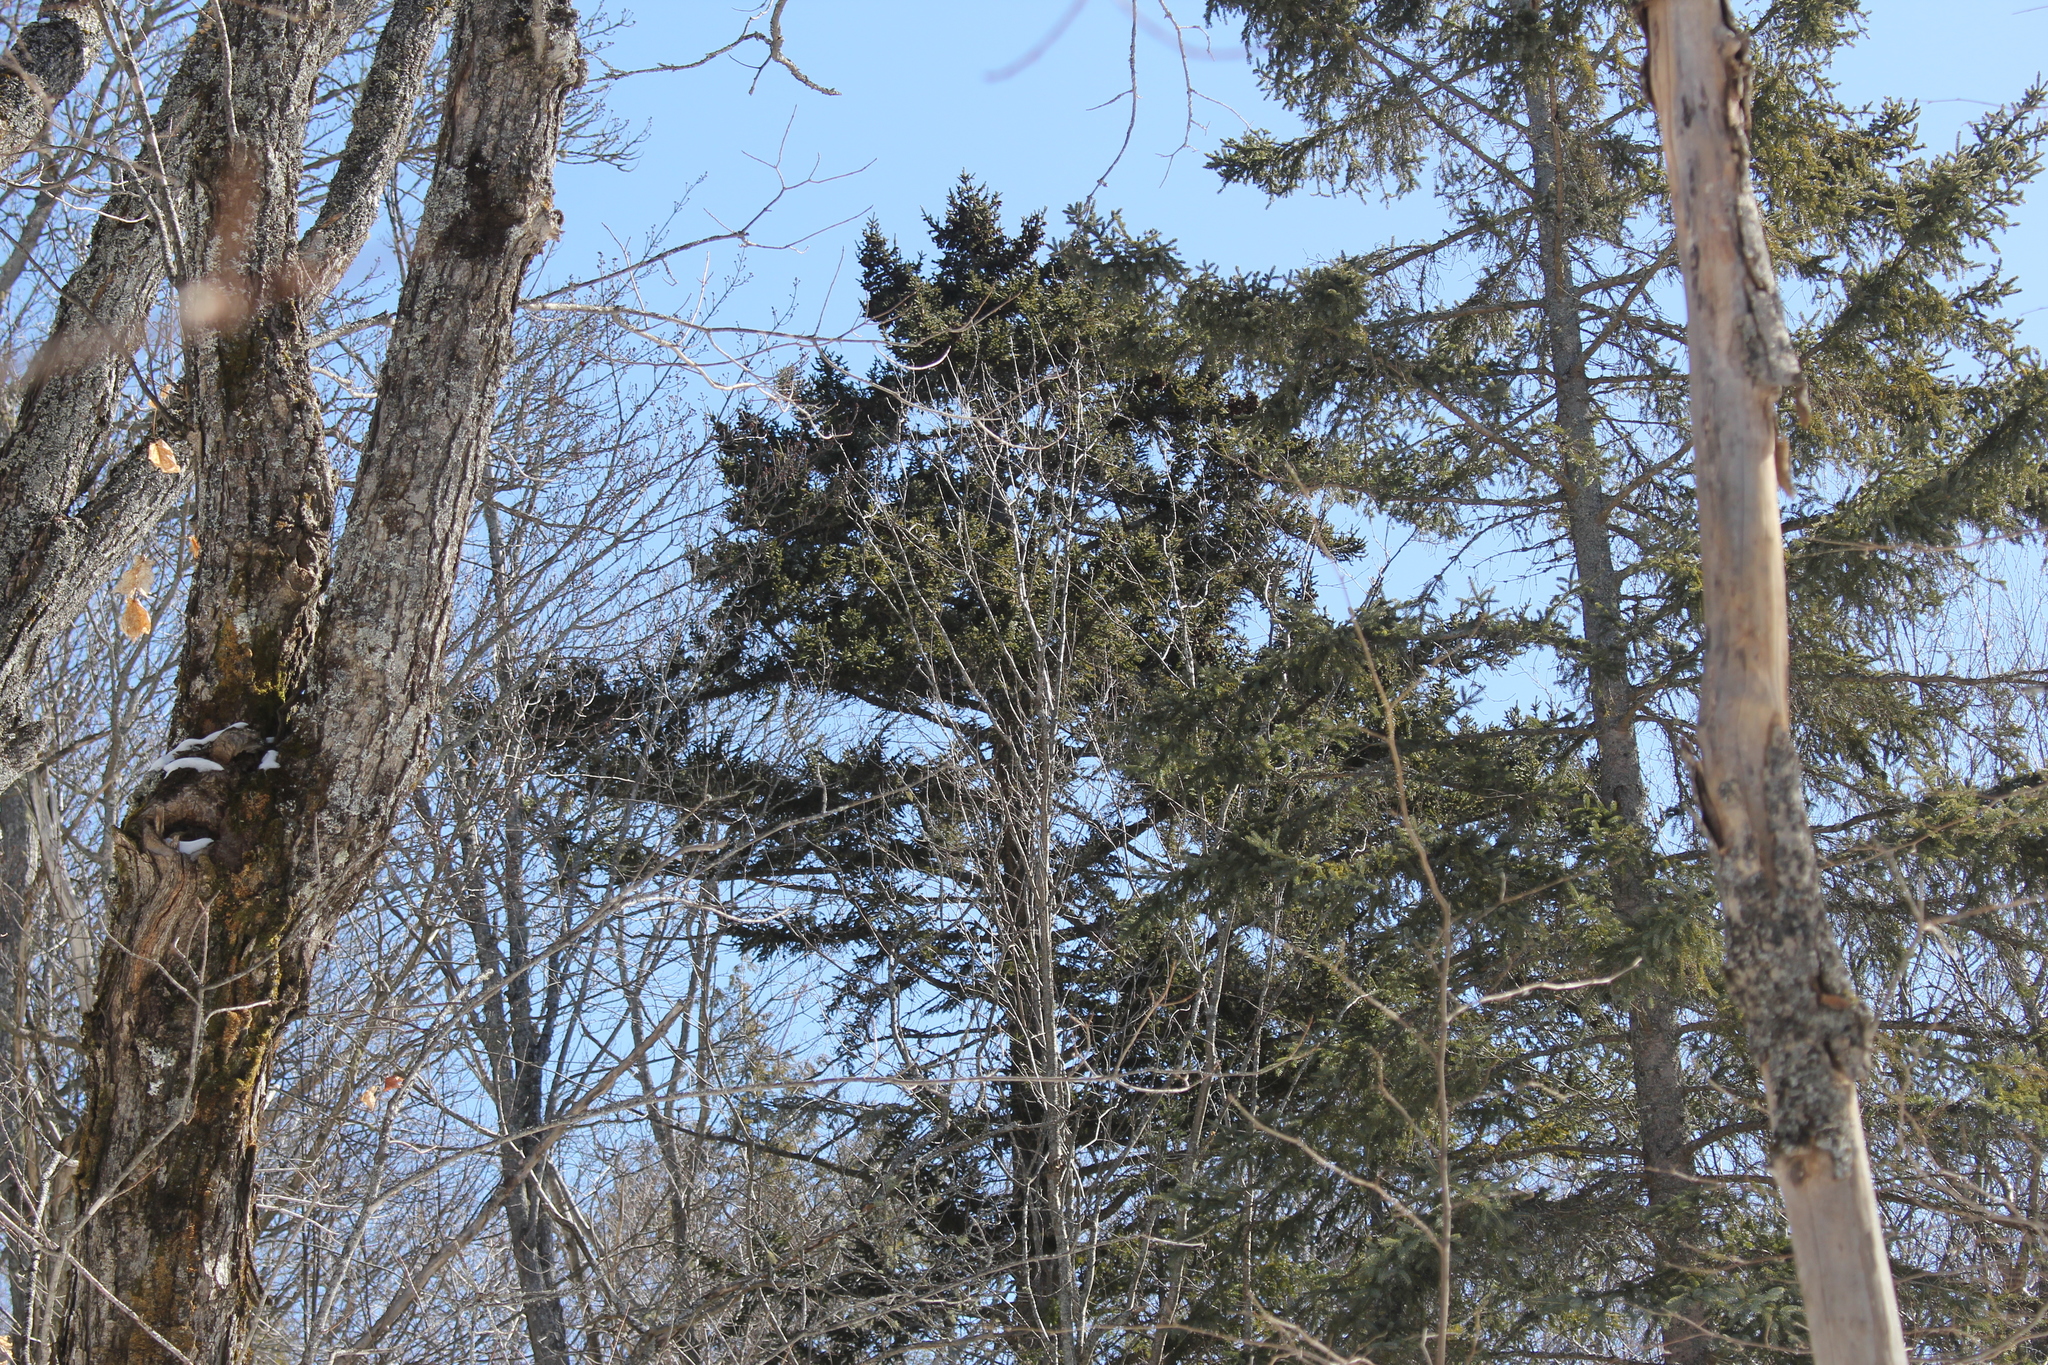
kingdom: Plantae
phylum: Tracheophyta
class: Pinopsida
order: Pinales
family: Pinaceae
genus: Picea
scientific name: Picea rubens
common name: Red spruce
